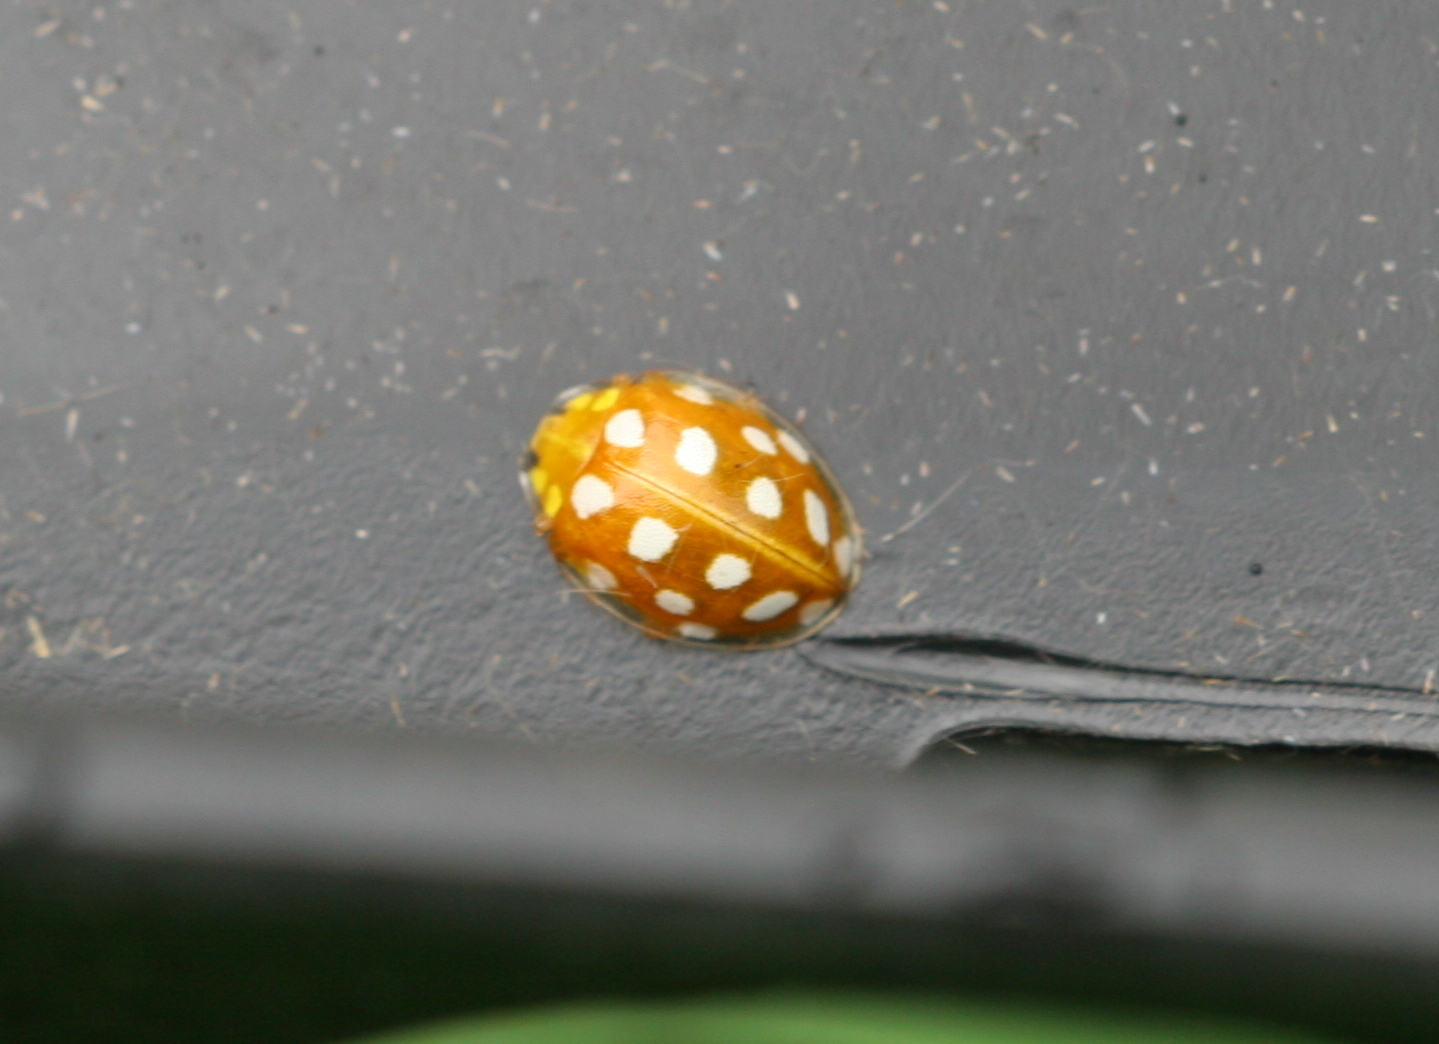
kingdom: Animalia
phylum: Arthropoda
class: Insecta
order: Coleoptera
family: Coccinellidae
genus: Halyzia
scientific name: Halyzia sedecimguttata
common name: Orange ladybird
